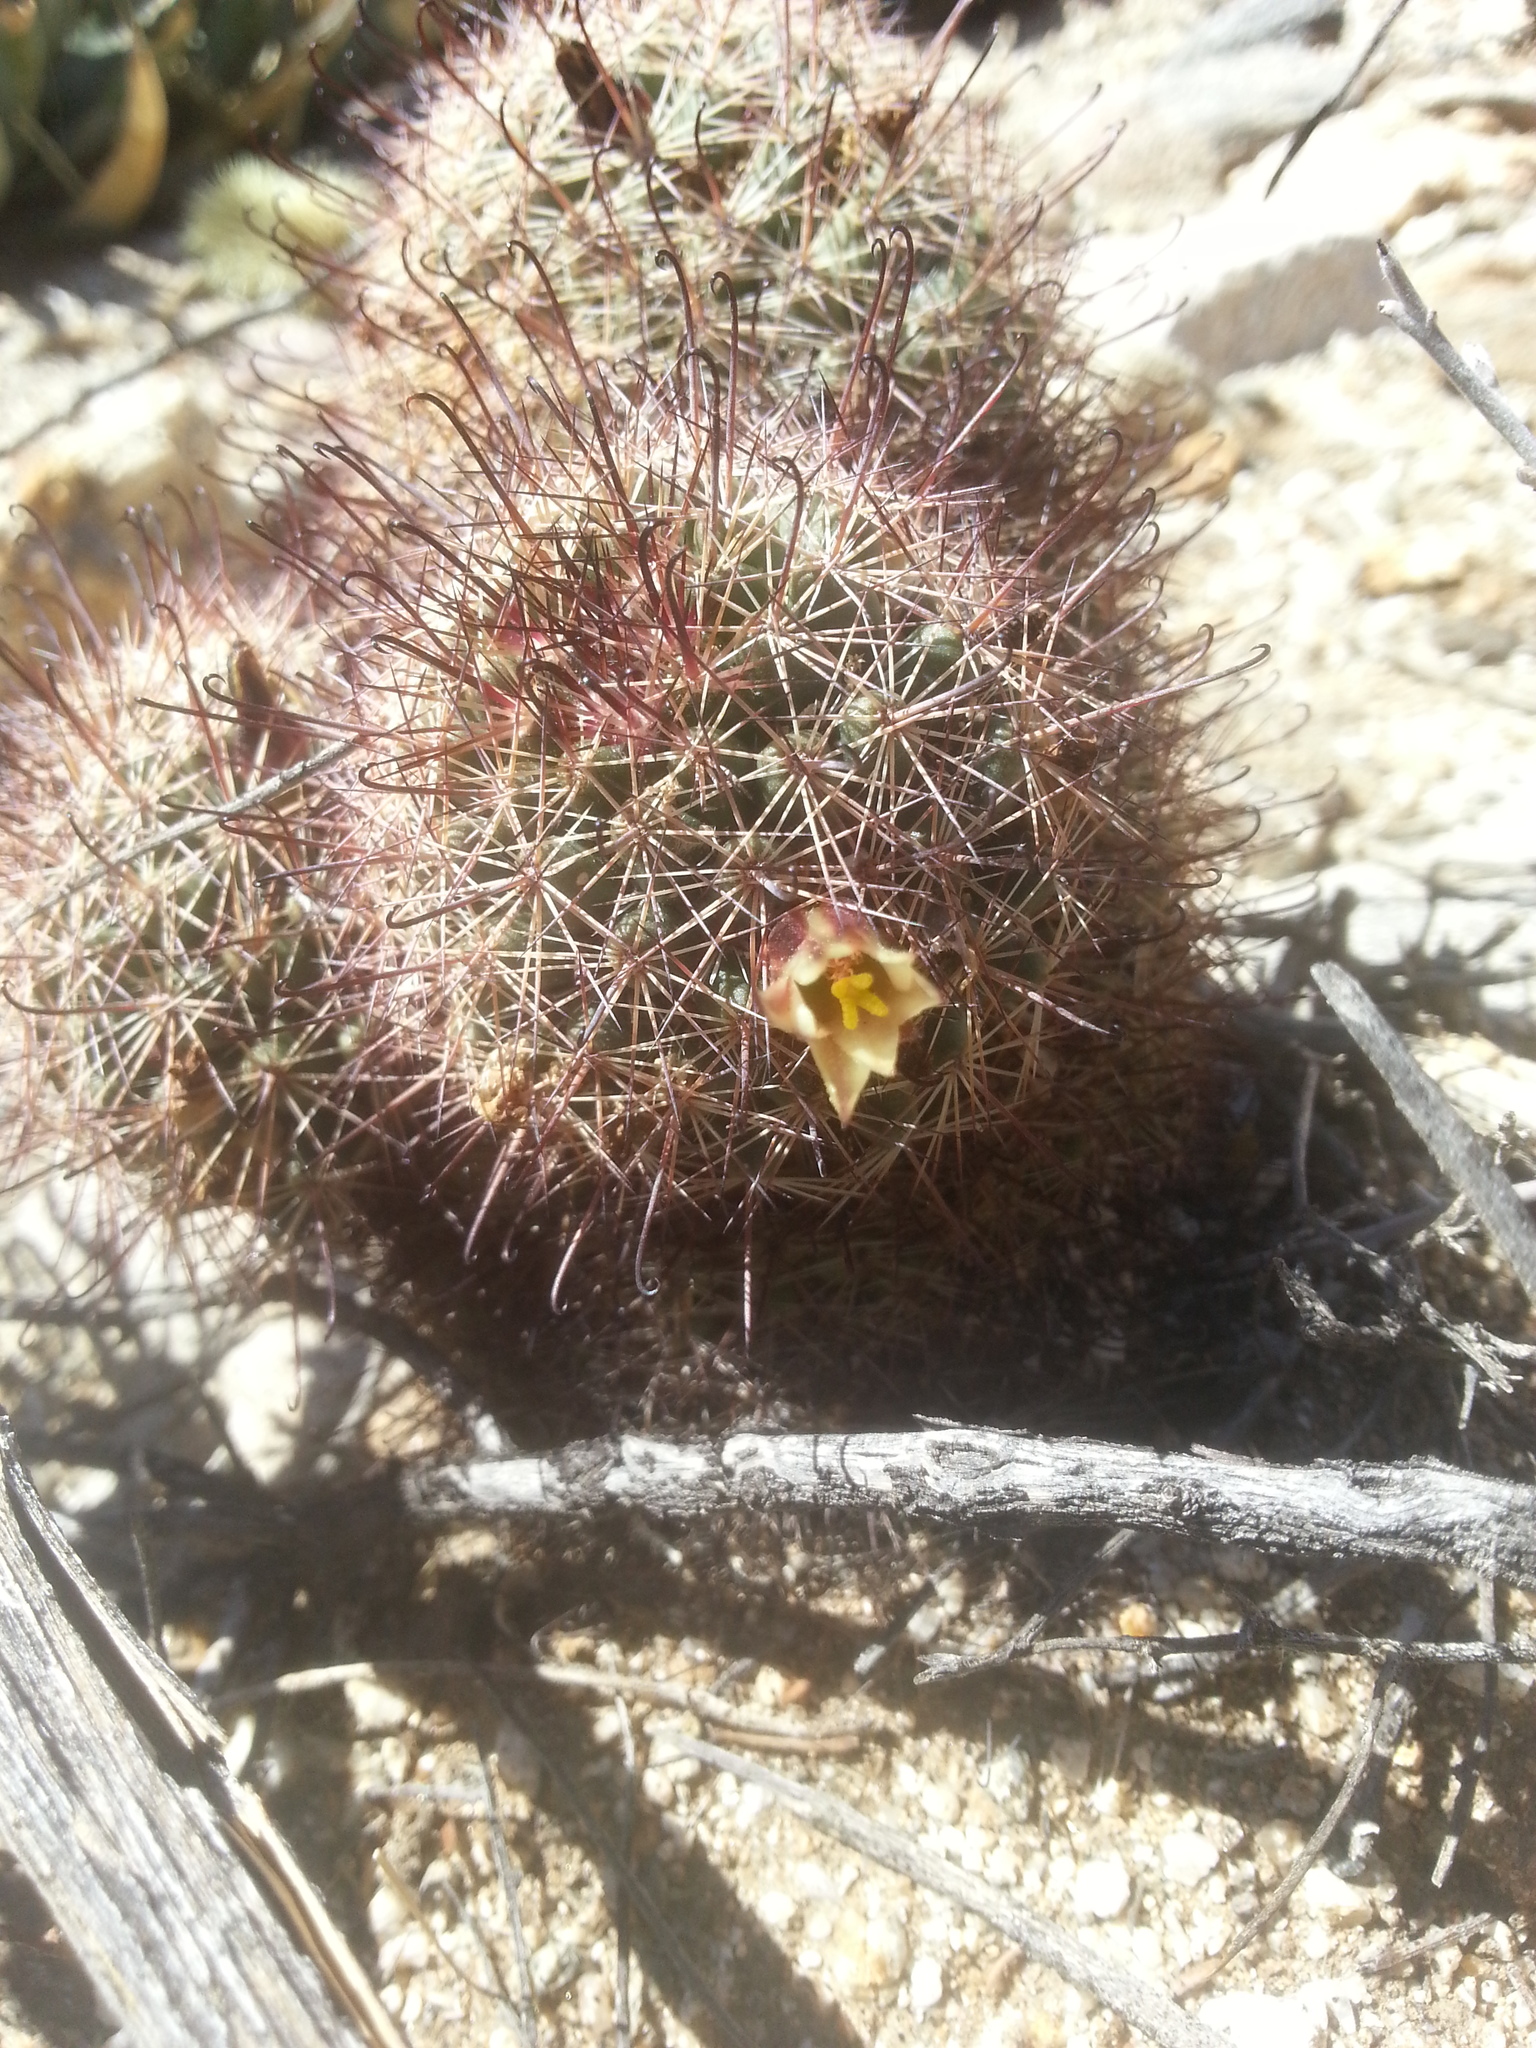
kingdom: Plantae
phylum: Tracheophyta
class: Magnoliopsida
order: Caryophyllales
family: Cactaceae
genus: Cochemiea
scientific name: Cochemiea dioica
